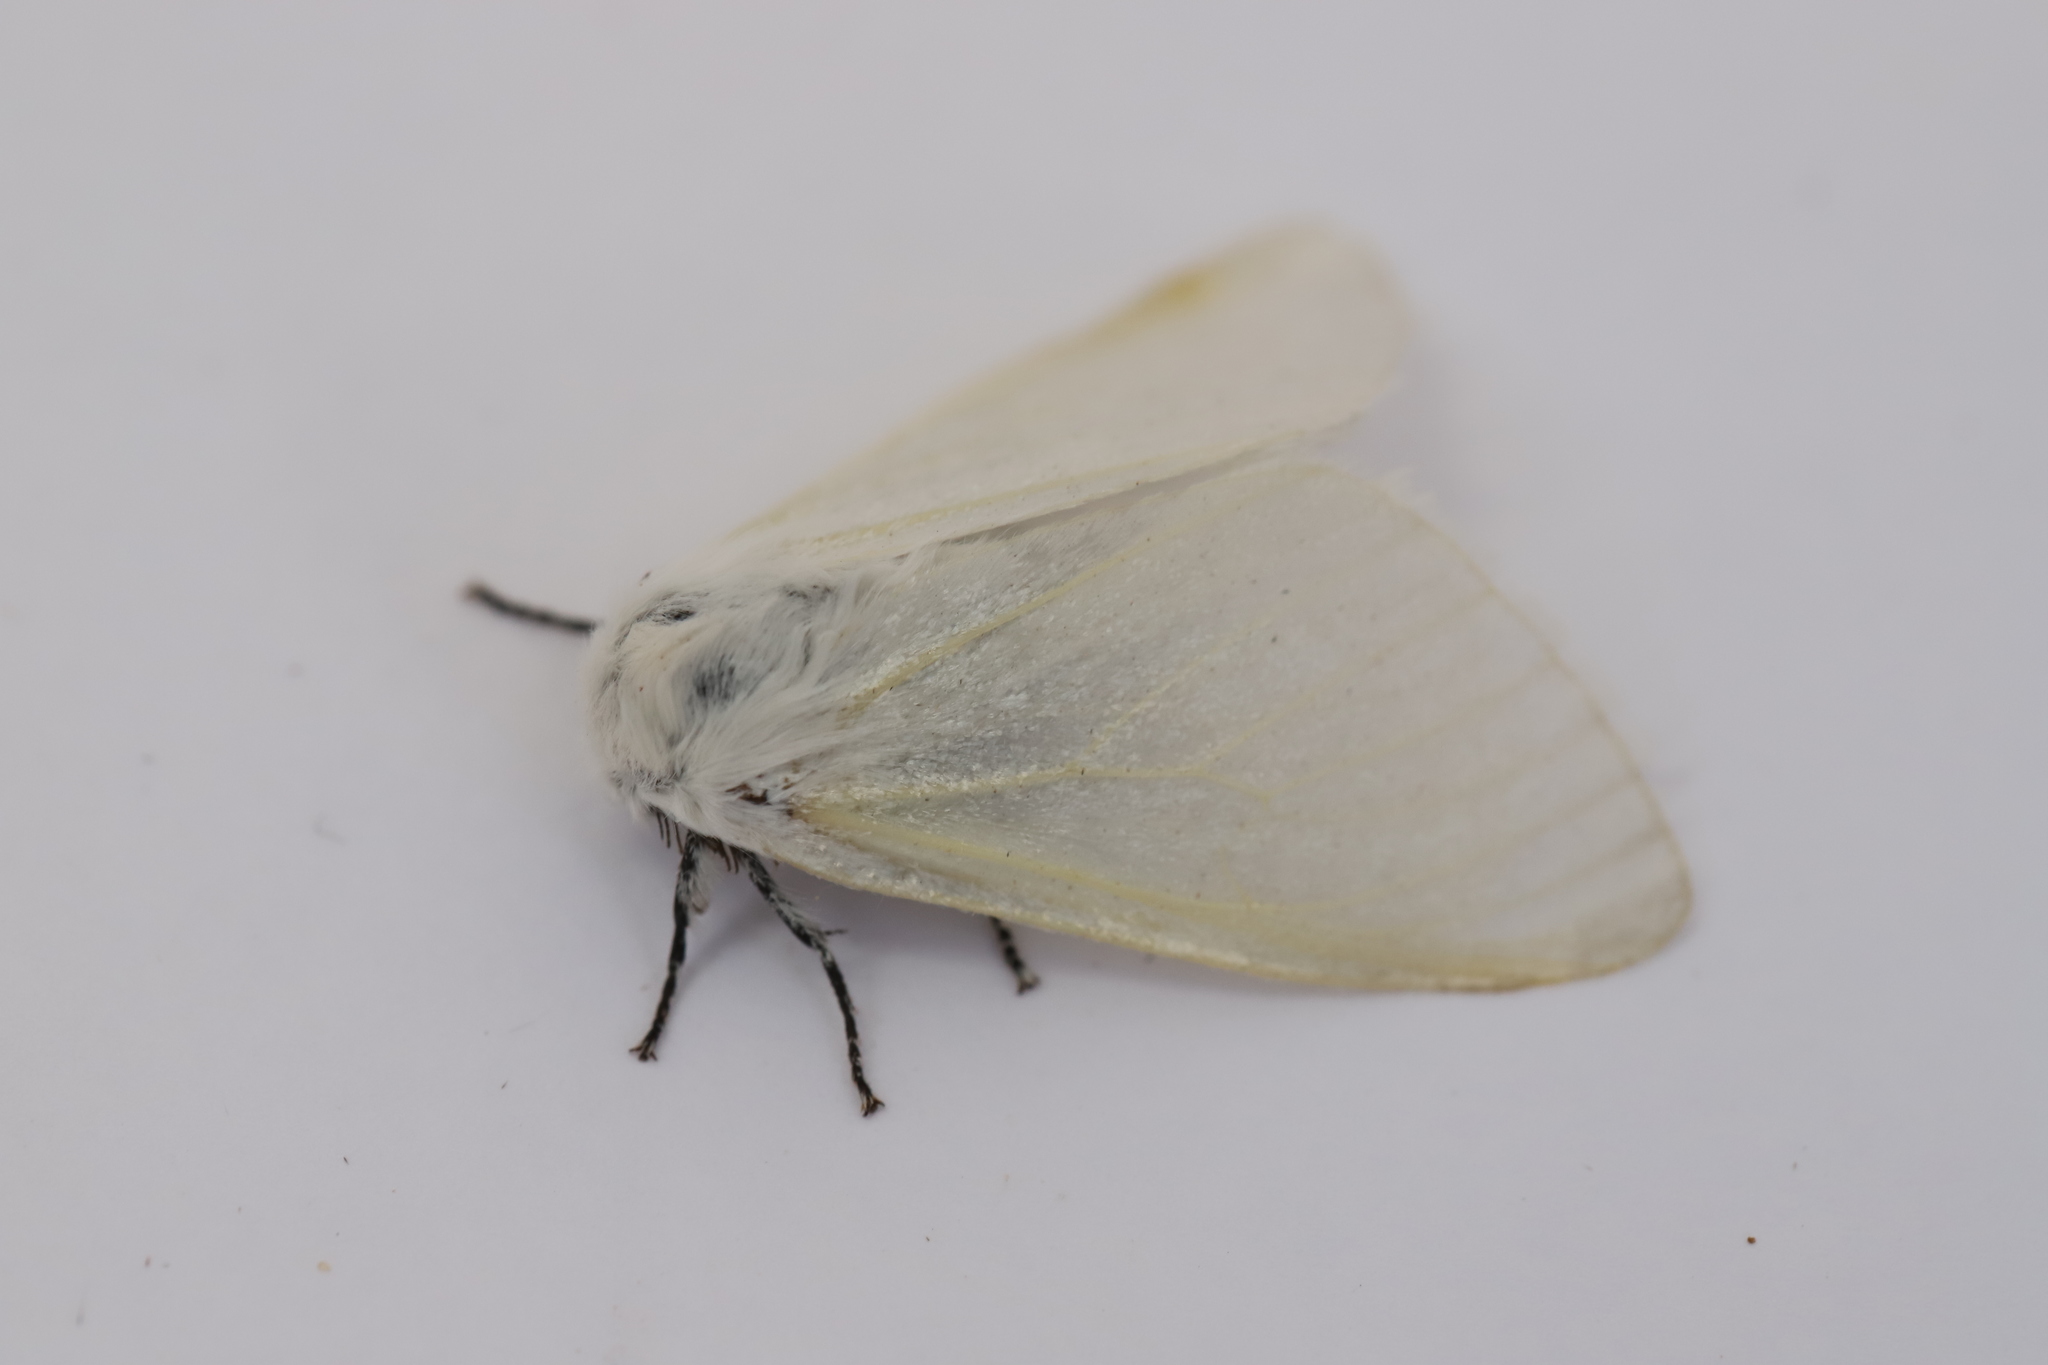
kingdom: Animalia
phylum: Arthropoda
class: Insecta
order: Lepidoptera
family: Erebidae
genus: Leucoma
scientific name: Leucoma salicis
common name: White satin moth
